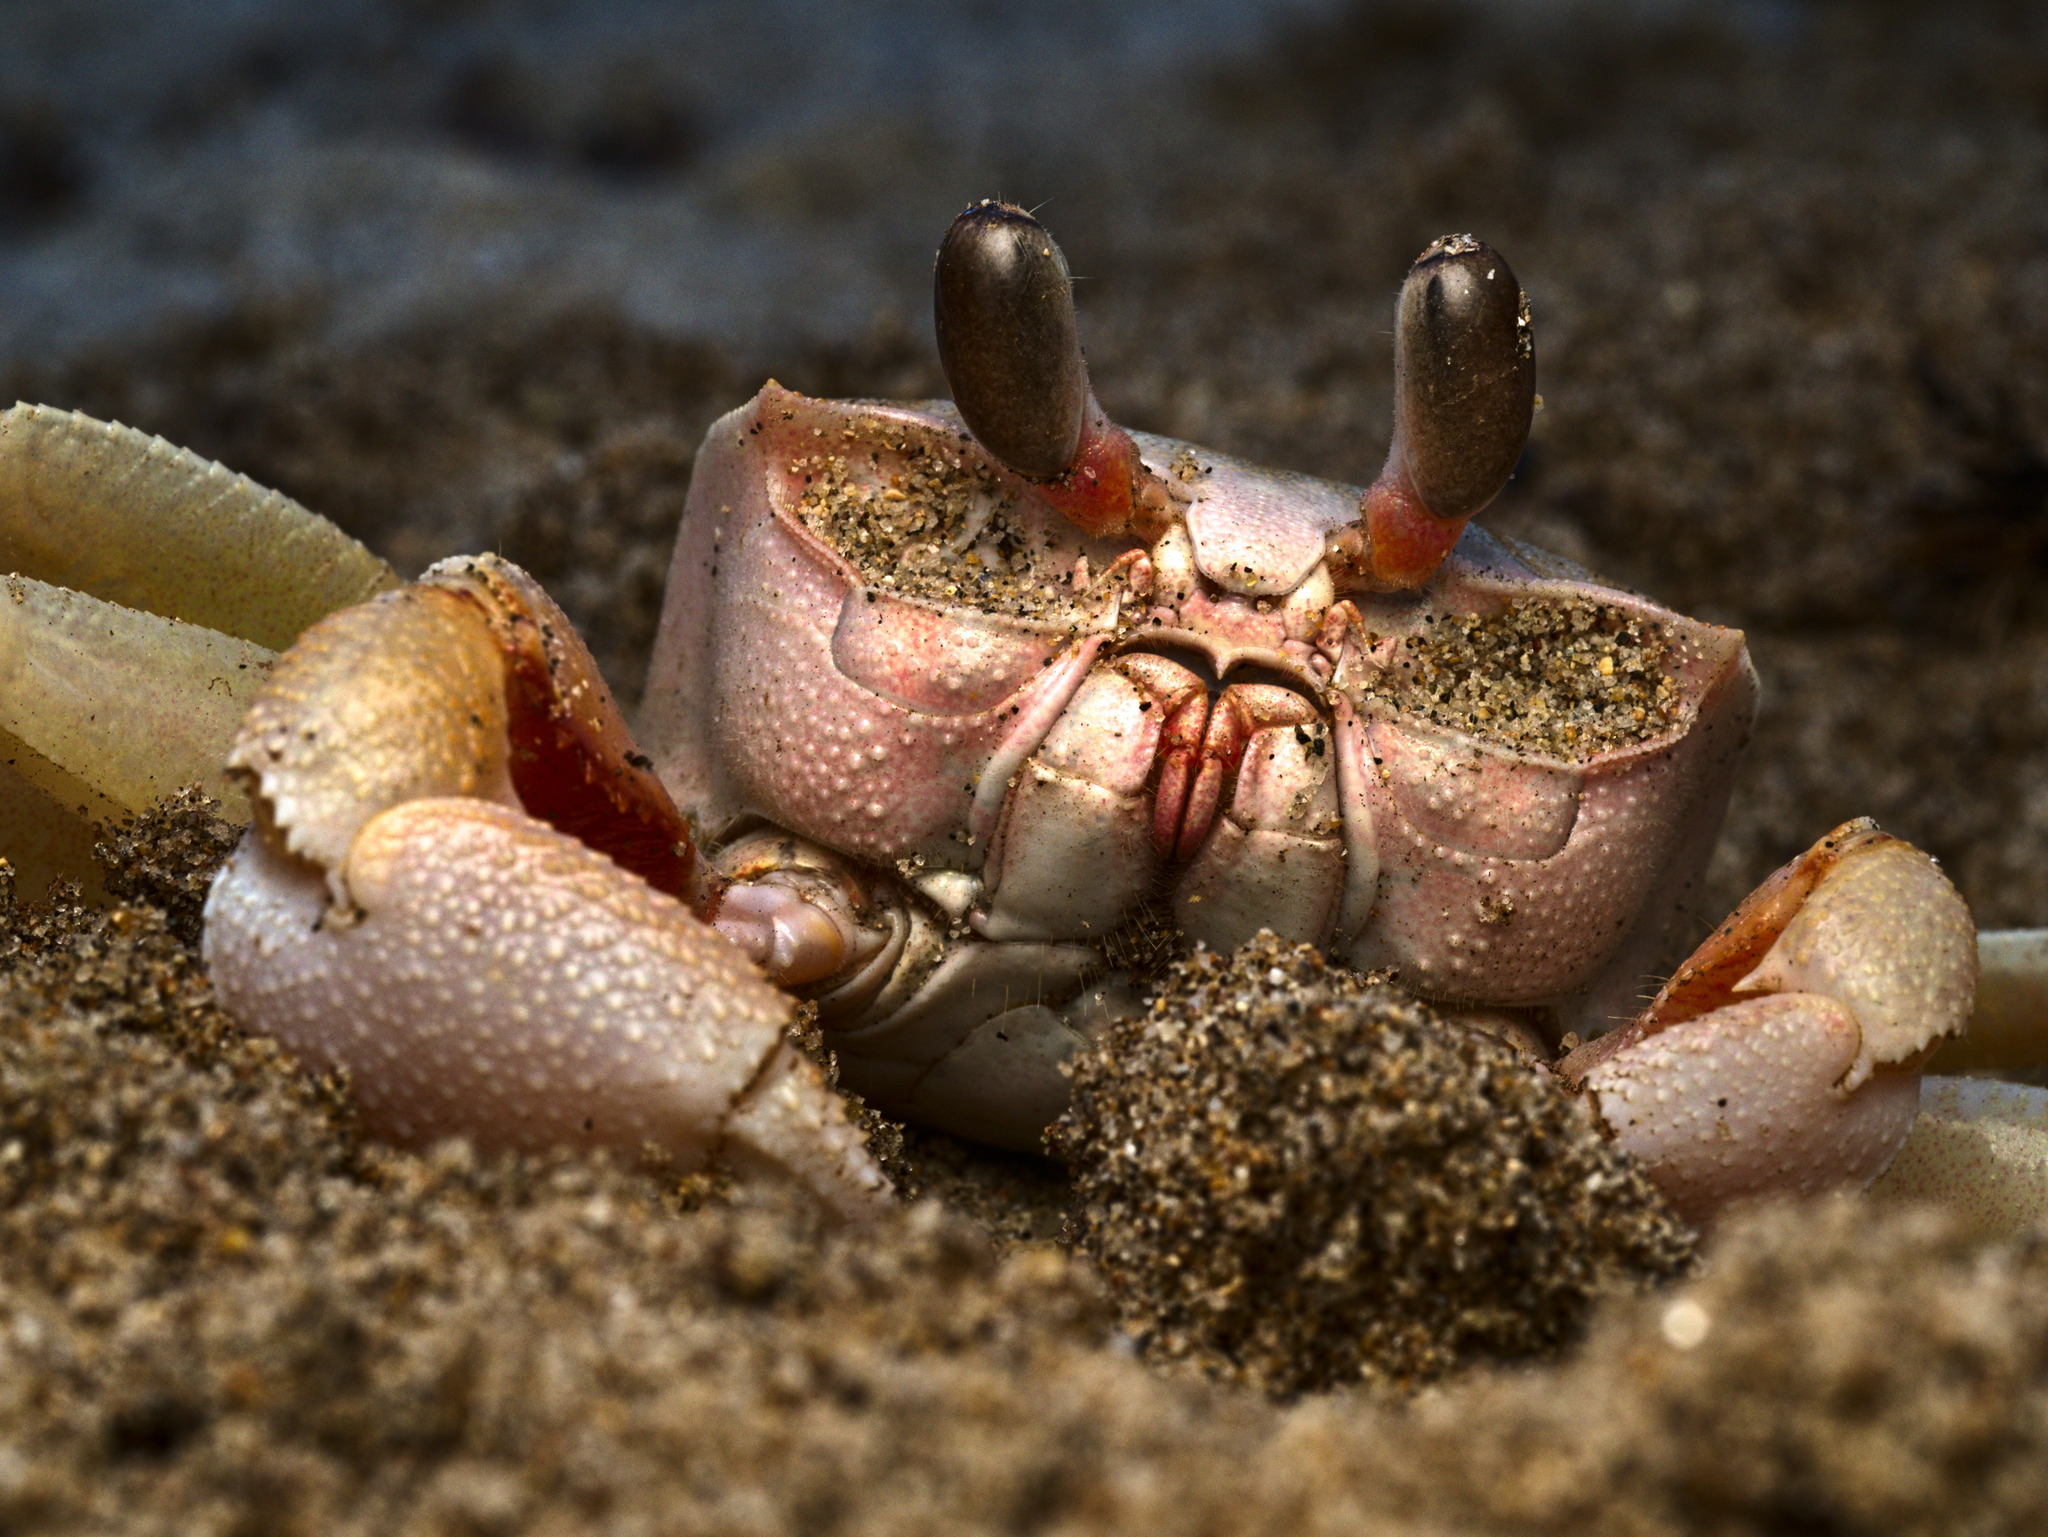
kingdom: Animalia
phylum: Arthropoda
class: Malacostraca
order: Decapoda
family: Ocypodidae
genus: Ocypode
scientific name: Ocypode occidentalis
